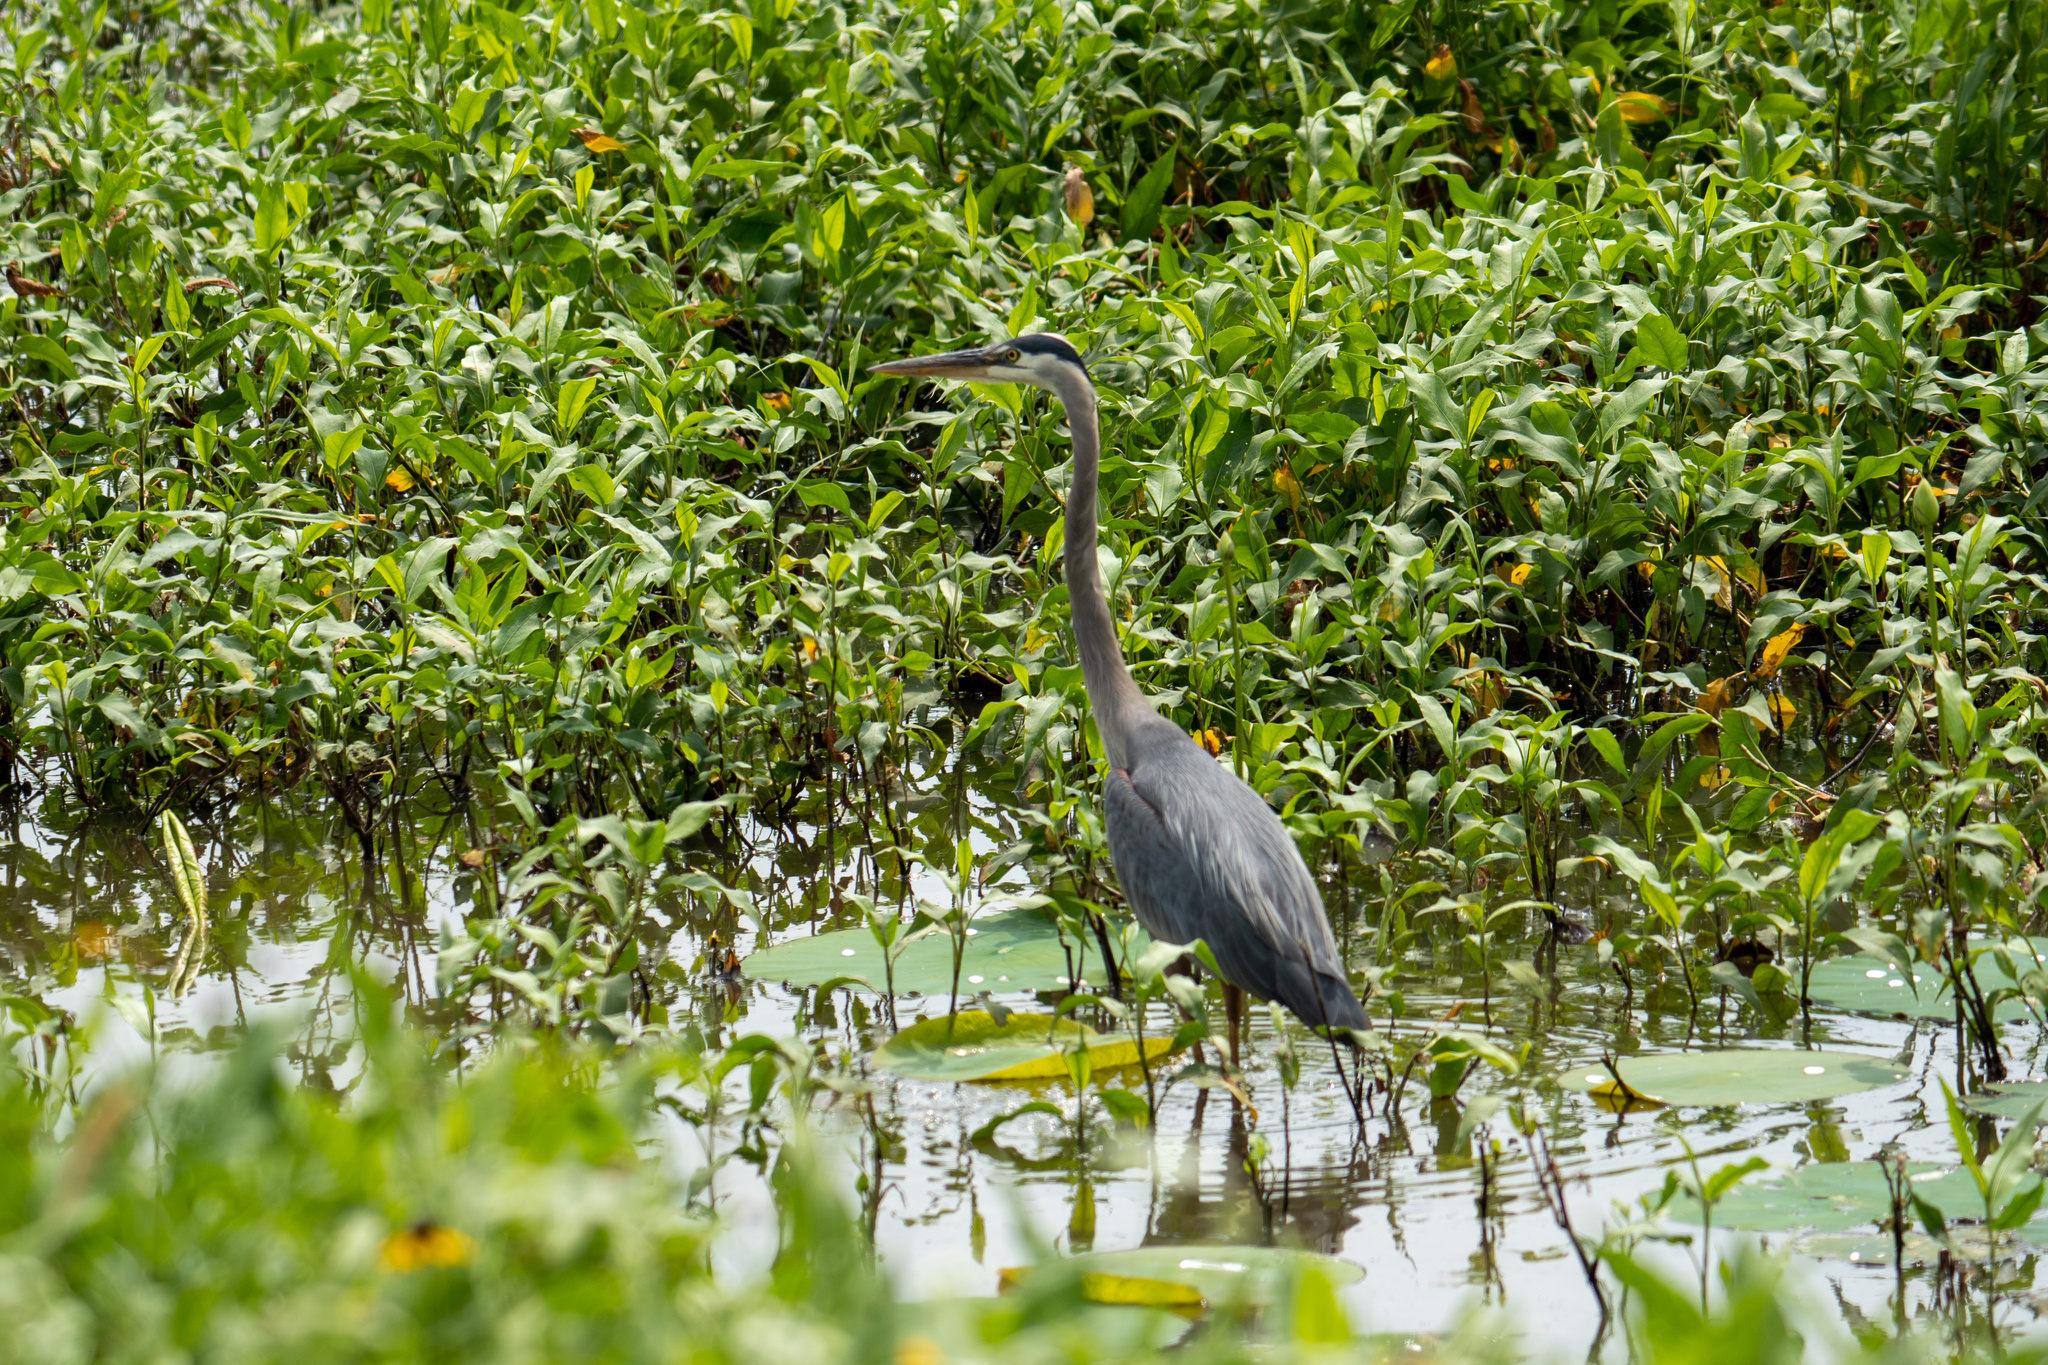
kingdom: Animalia
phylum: Chordata
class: Aves
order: Pelecaniformes
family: Ardeidae
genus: Ardea
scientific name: Ardea herodias
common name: Great blue heron
